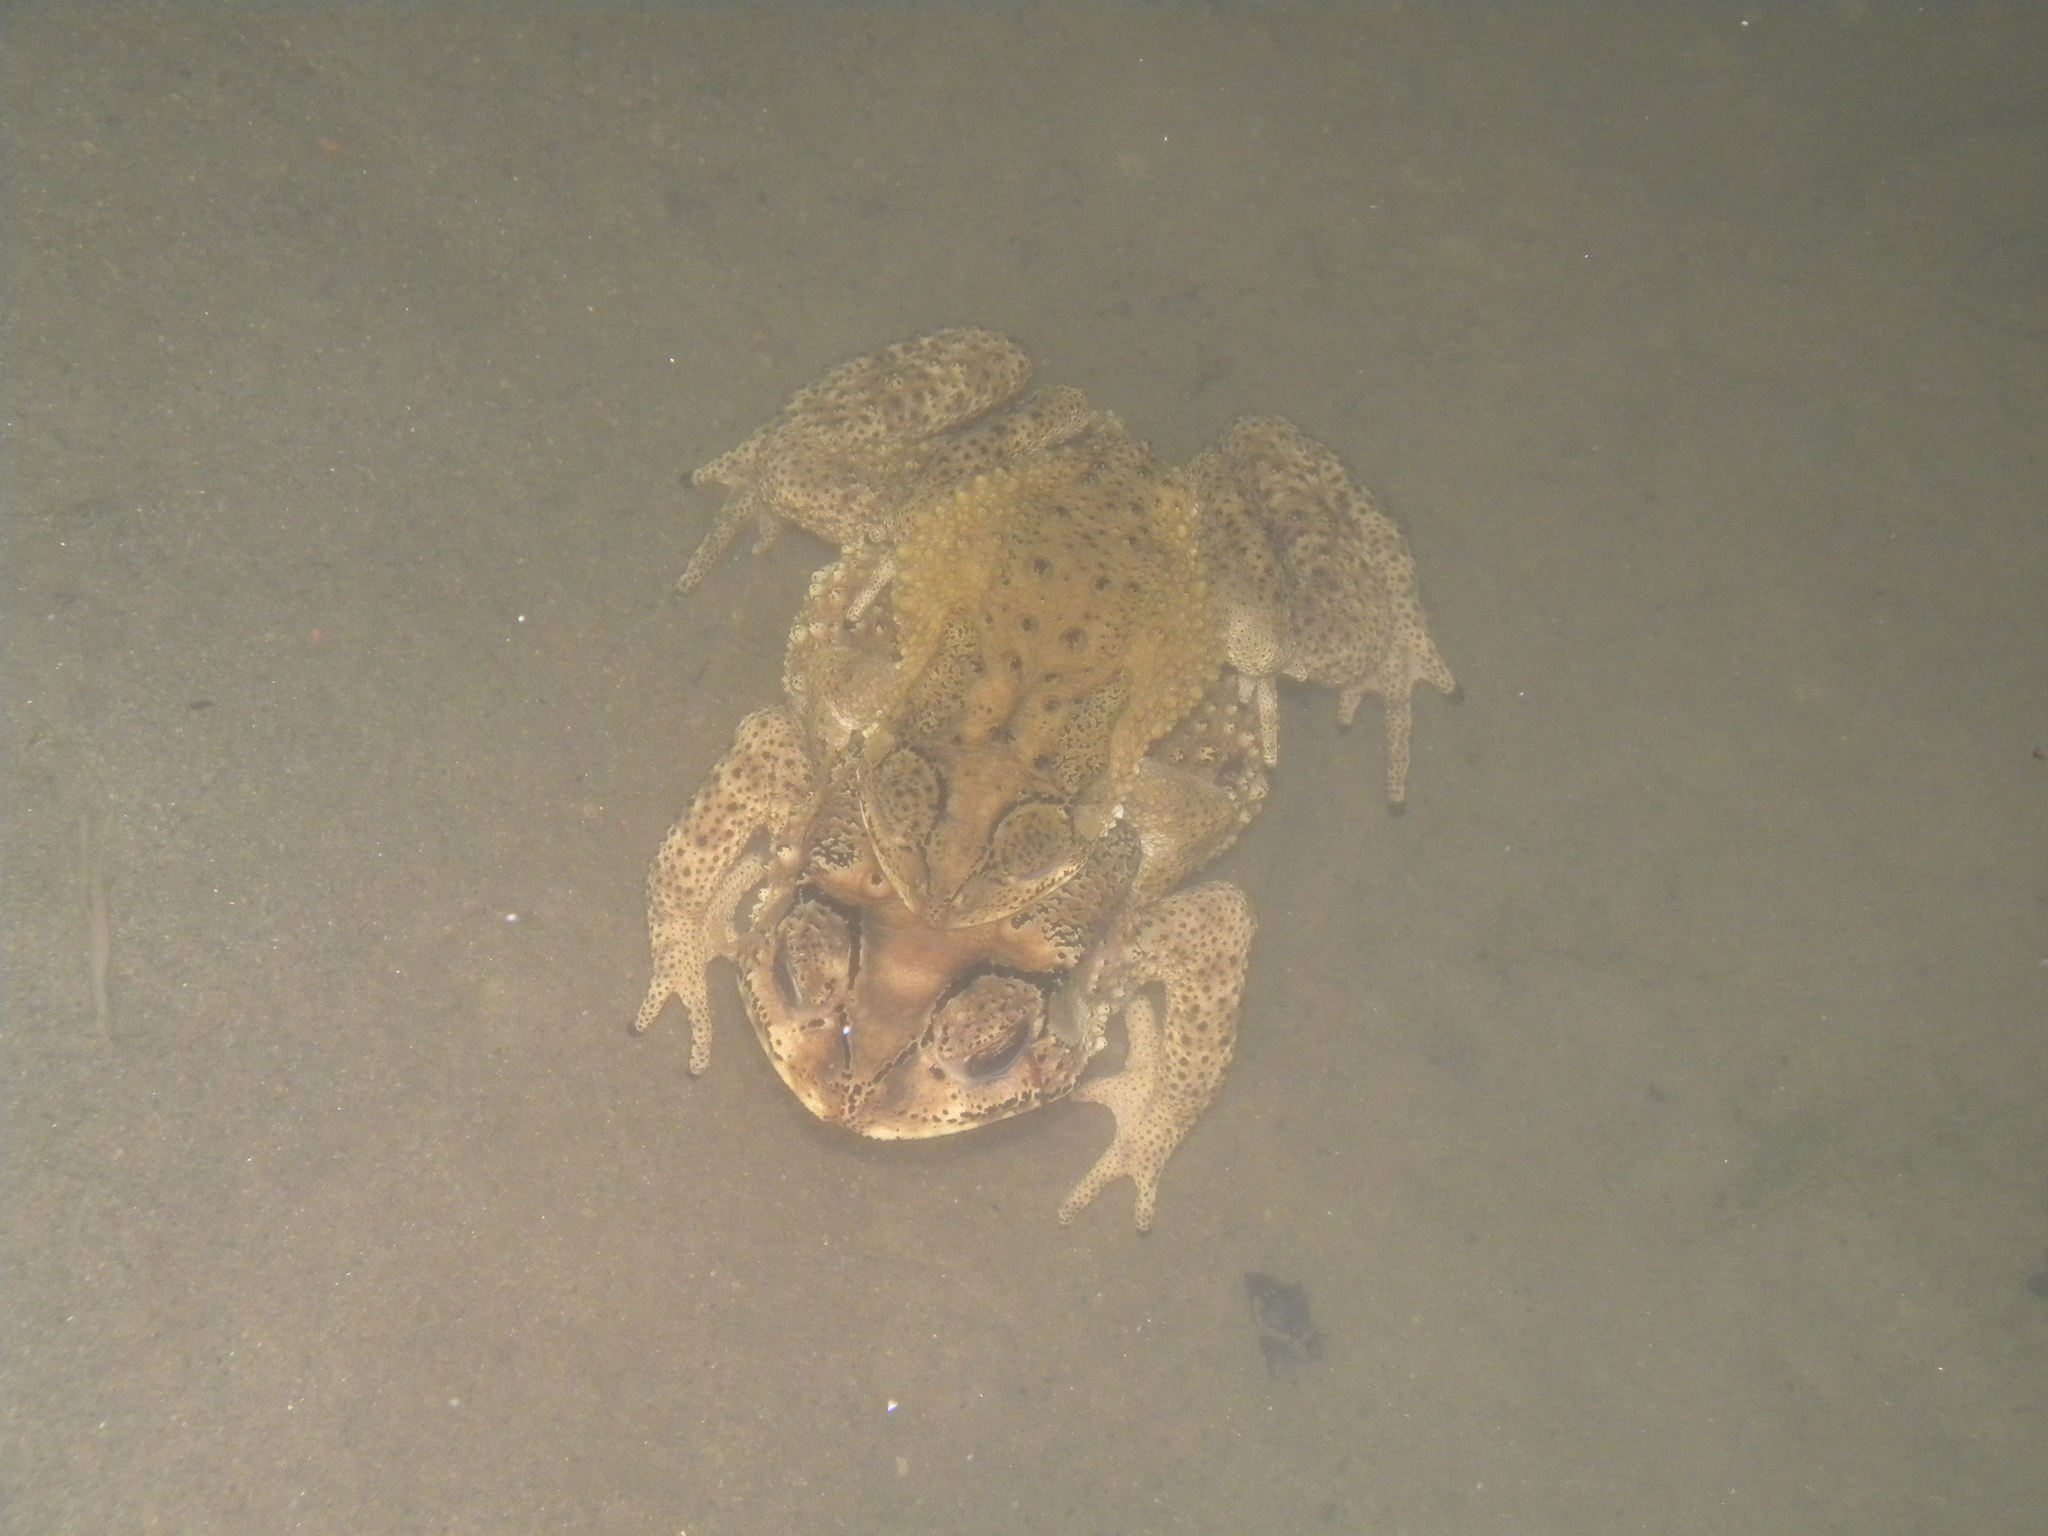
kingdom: Animalia
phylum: Chordata
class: Amphibia
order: Anura
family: Bufonidae
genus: Duttaphrynus
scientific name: Duttaphrynus melanostictus
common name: Common sunda toad
